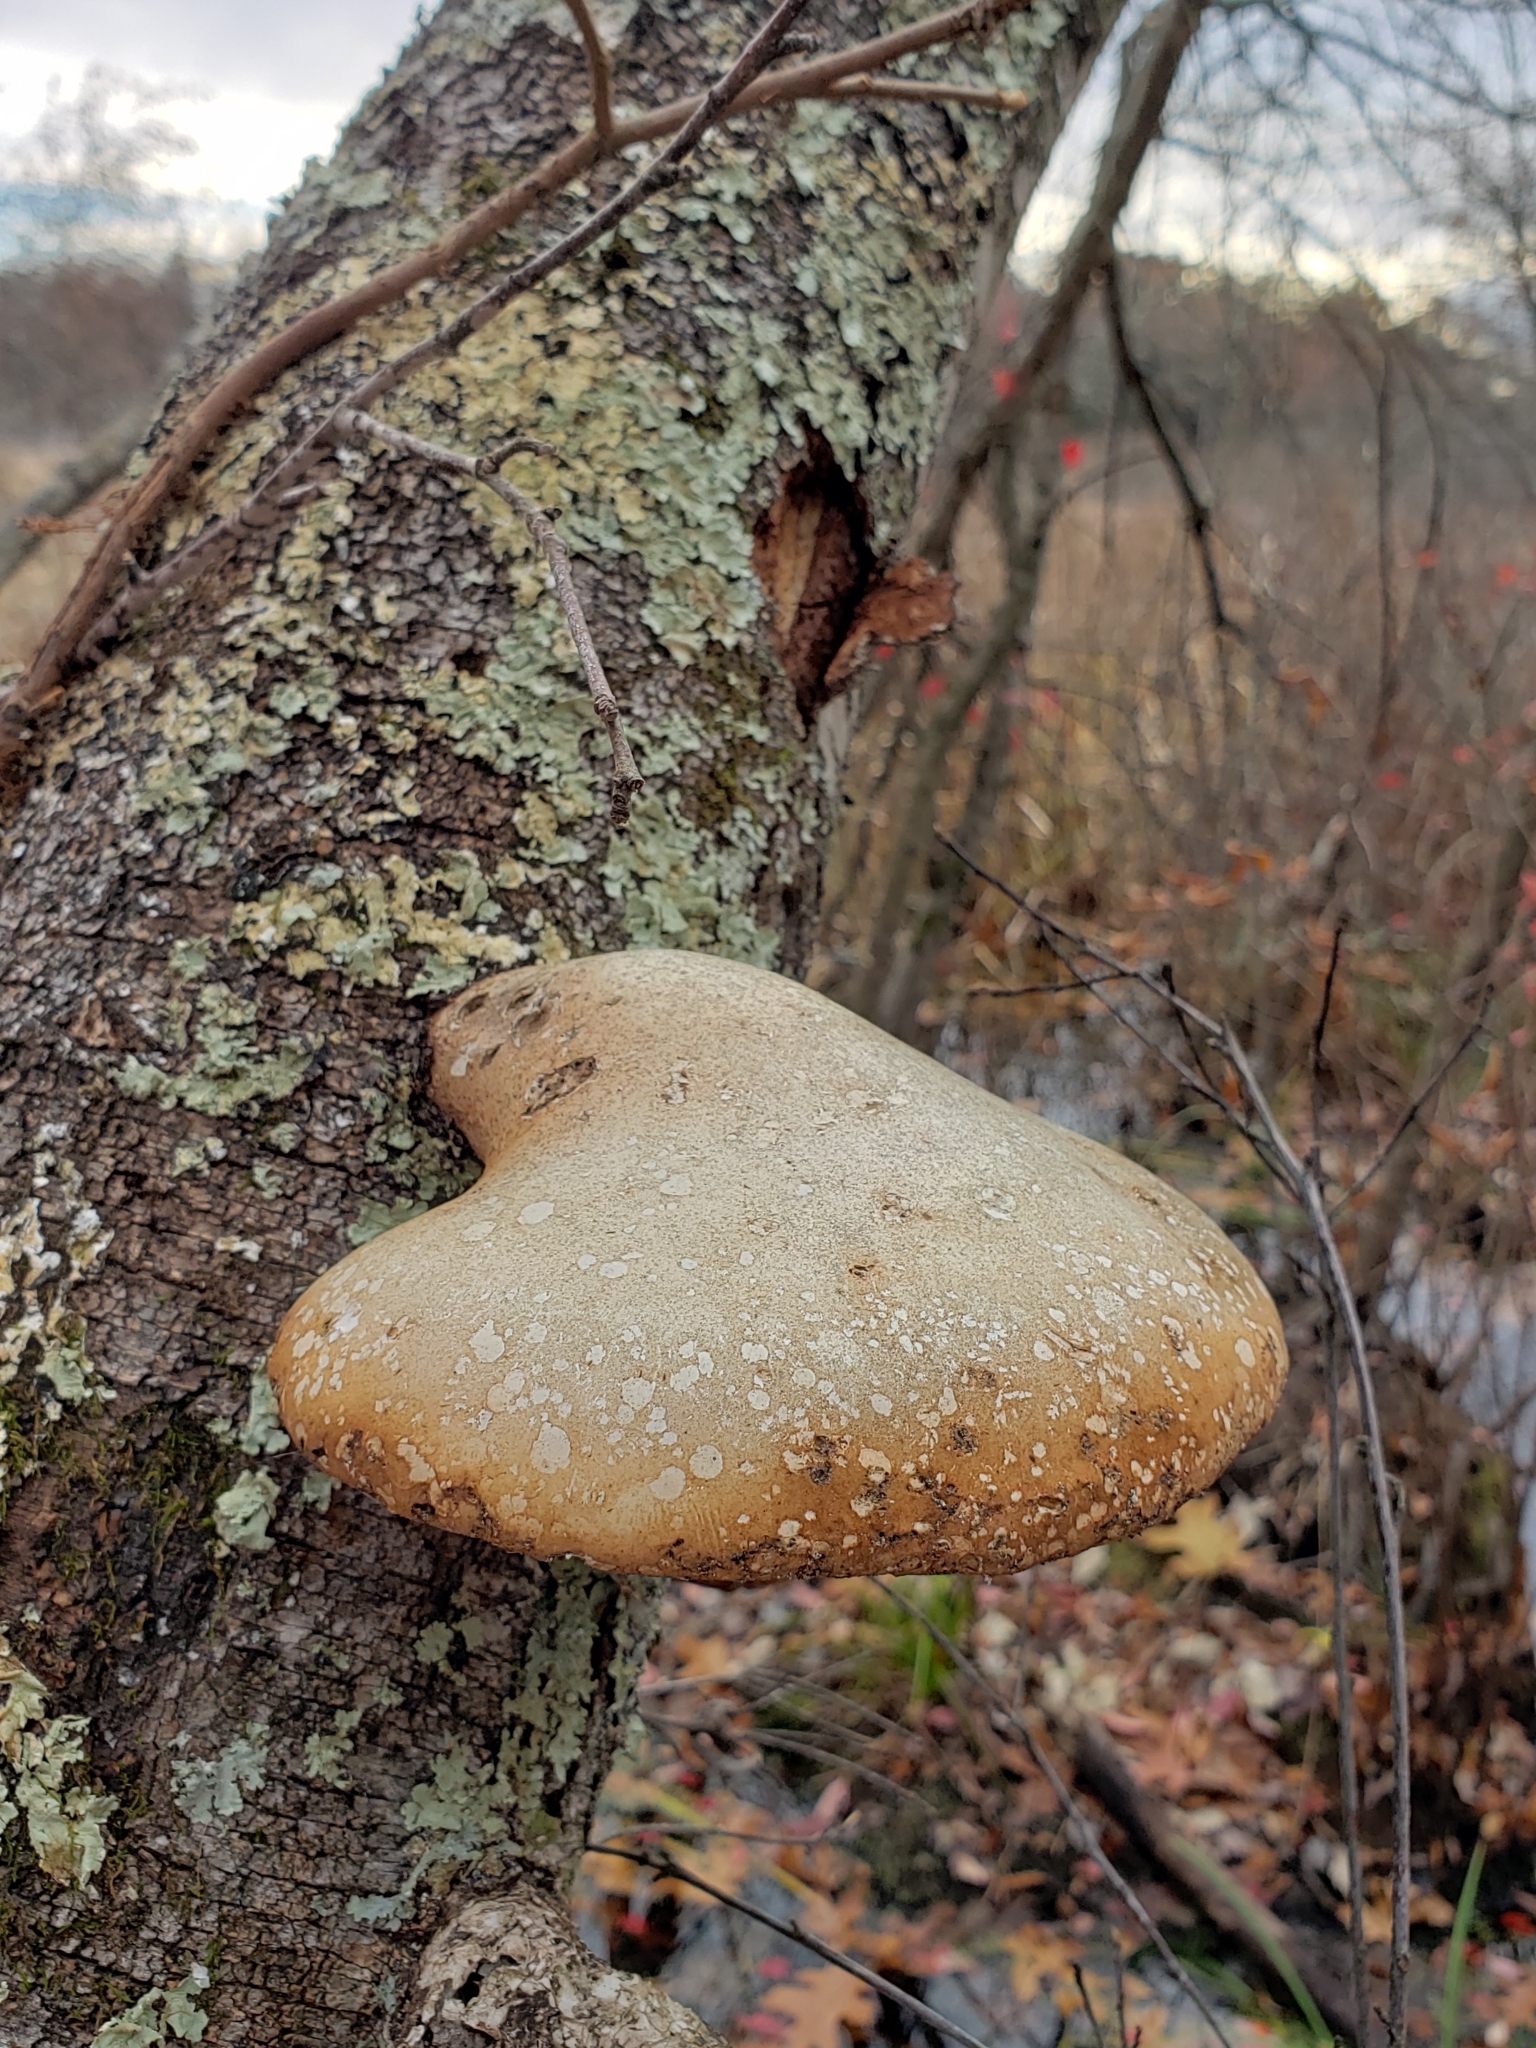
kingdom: Fungi
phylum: Basidiomycota
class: Agaricomycetes
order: Polyporales
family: Fomitopsidaceae
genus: Fomitopsis
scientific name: Fomitopsis betulina
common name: Birch polypore
